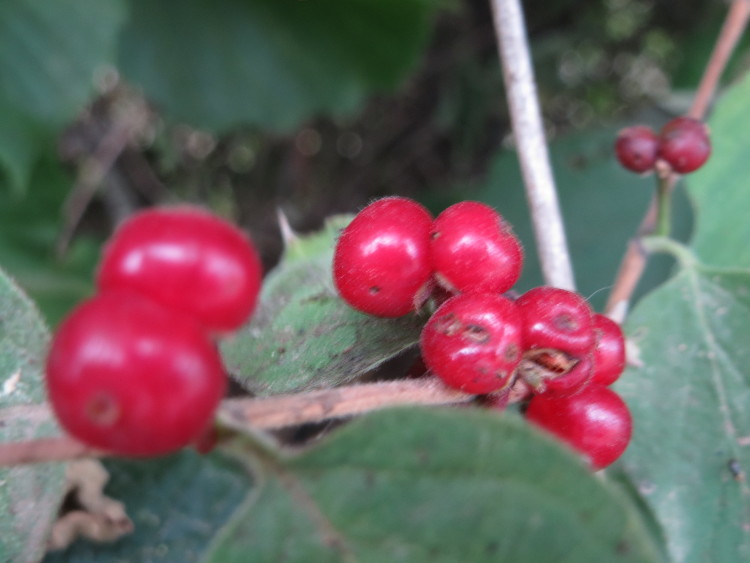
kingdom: Plantae
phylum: Tracheophyta
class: Magnoliopsida
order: Dipsacales
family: Caprifoliaceae
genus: Lonicera
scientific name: Lonicera xylosteum
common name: Fly honeysuckle
